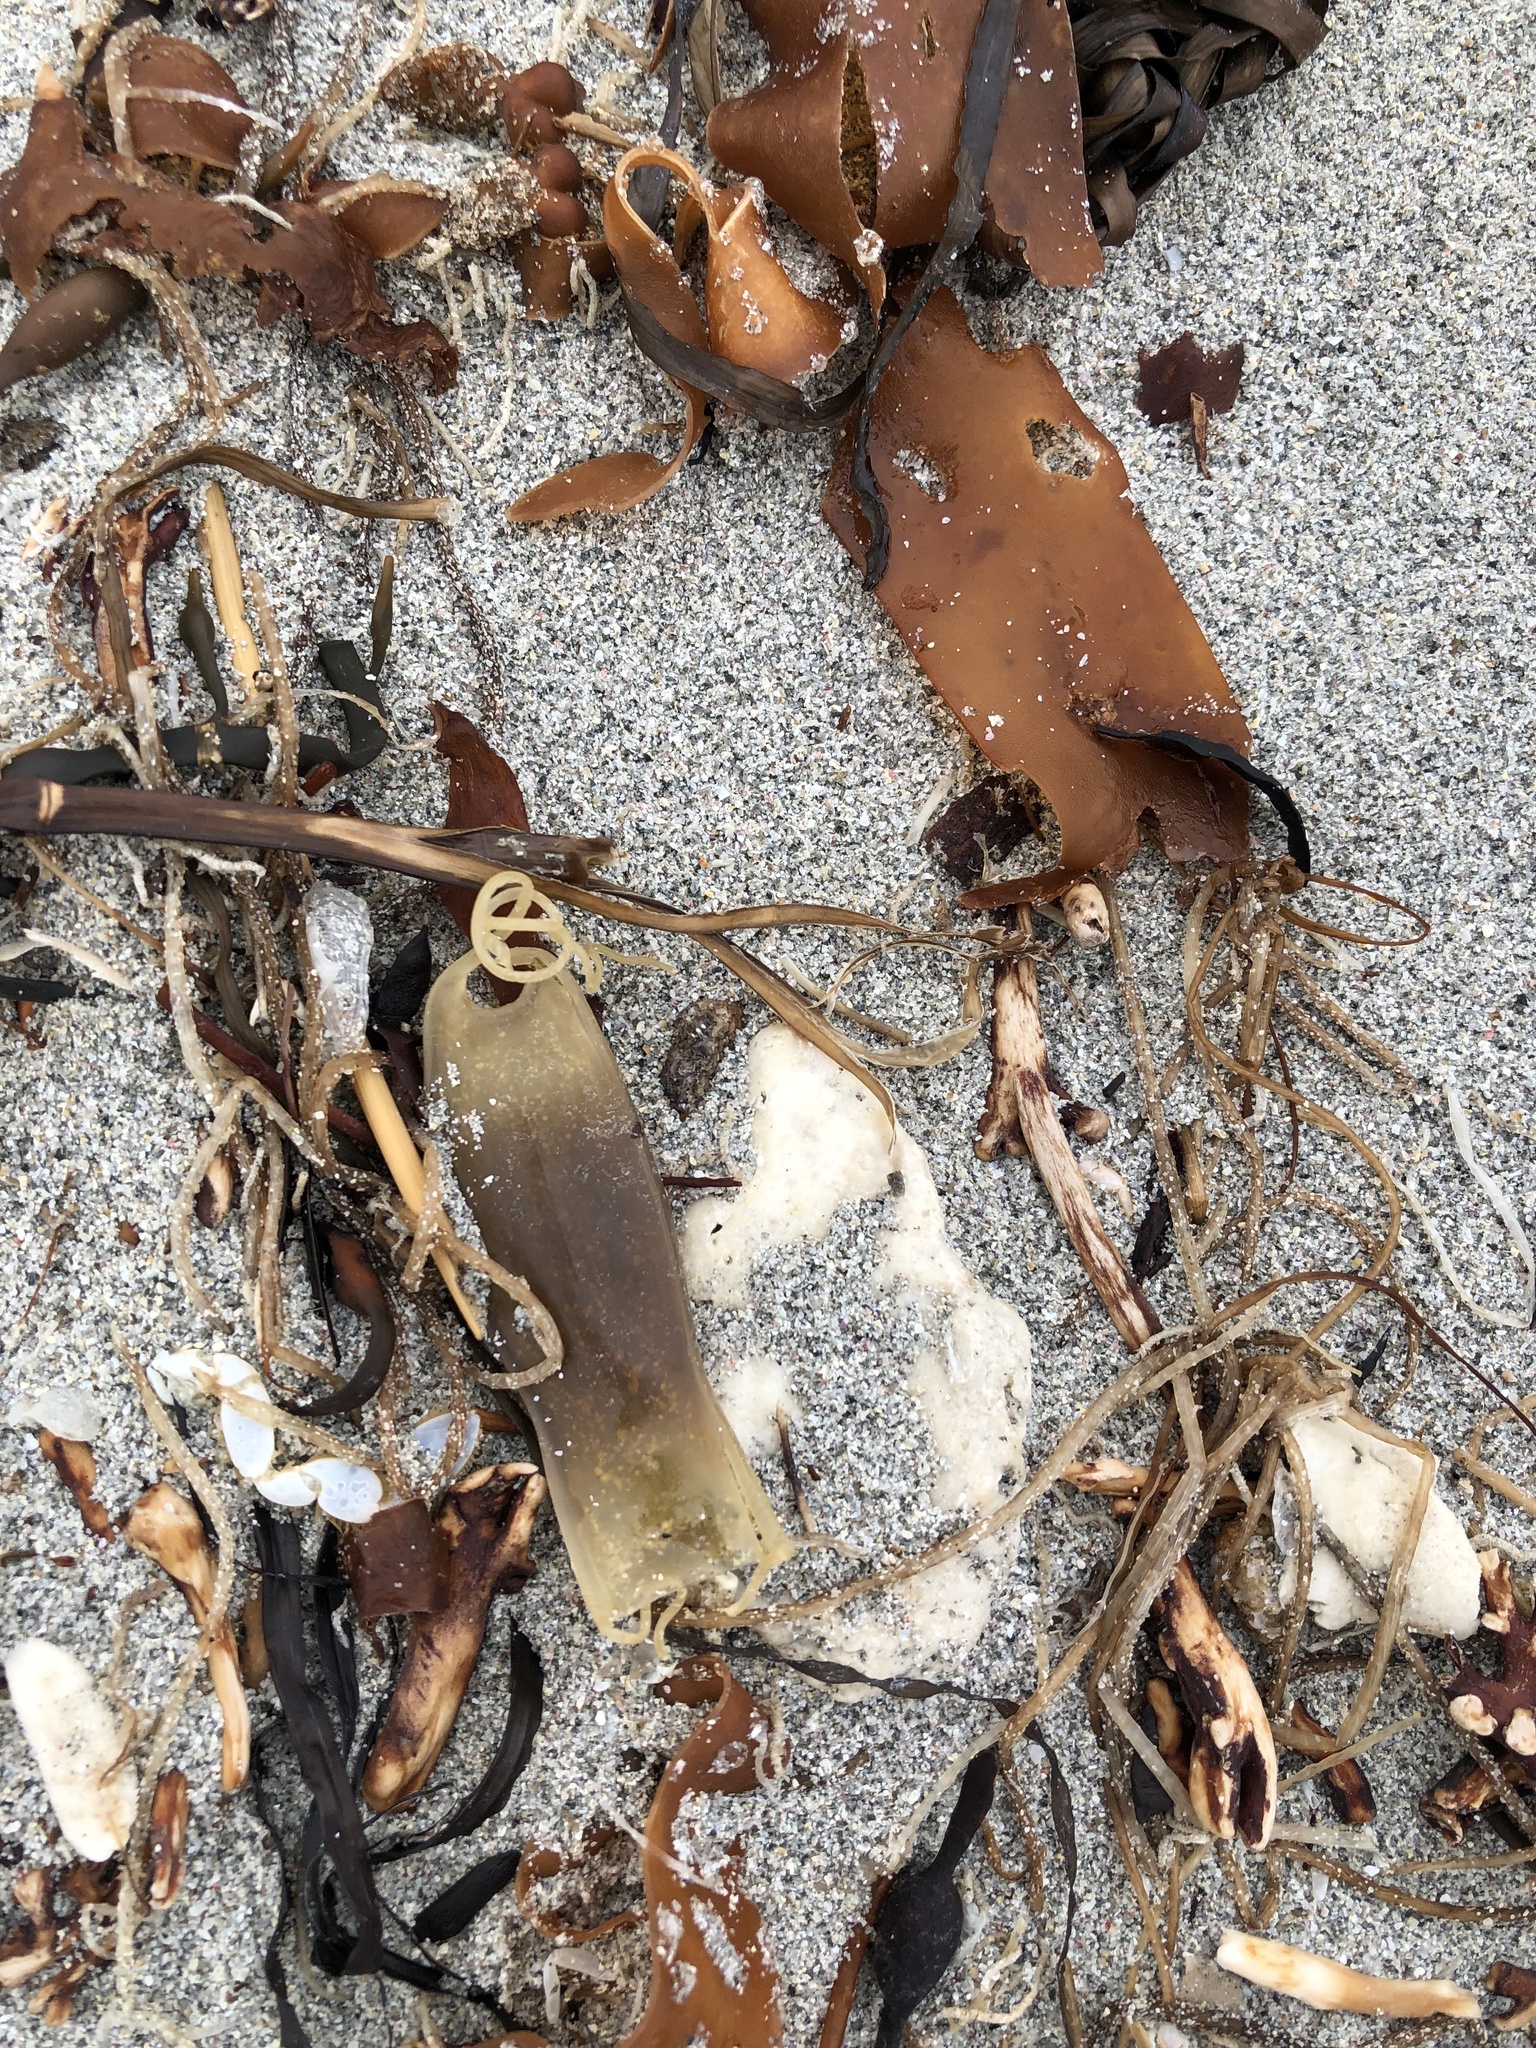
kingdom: Animalia
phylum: Chordata
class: Elasmobranchii
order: Carcharhiniformes
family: Scyliorhinidae
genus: Scyliorhinus
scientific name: Scyliorhinus canicula
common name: Lesser spotted dogfish
